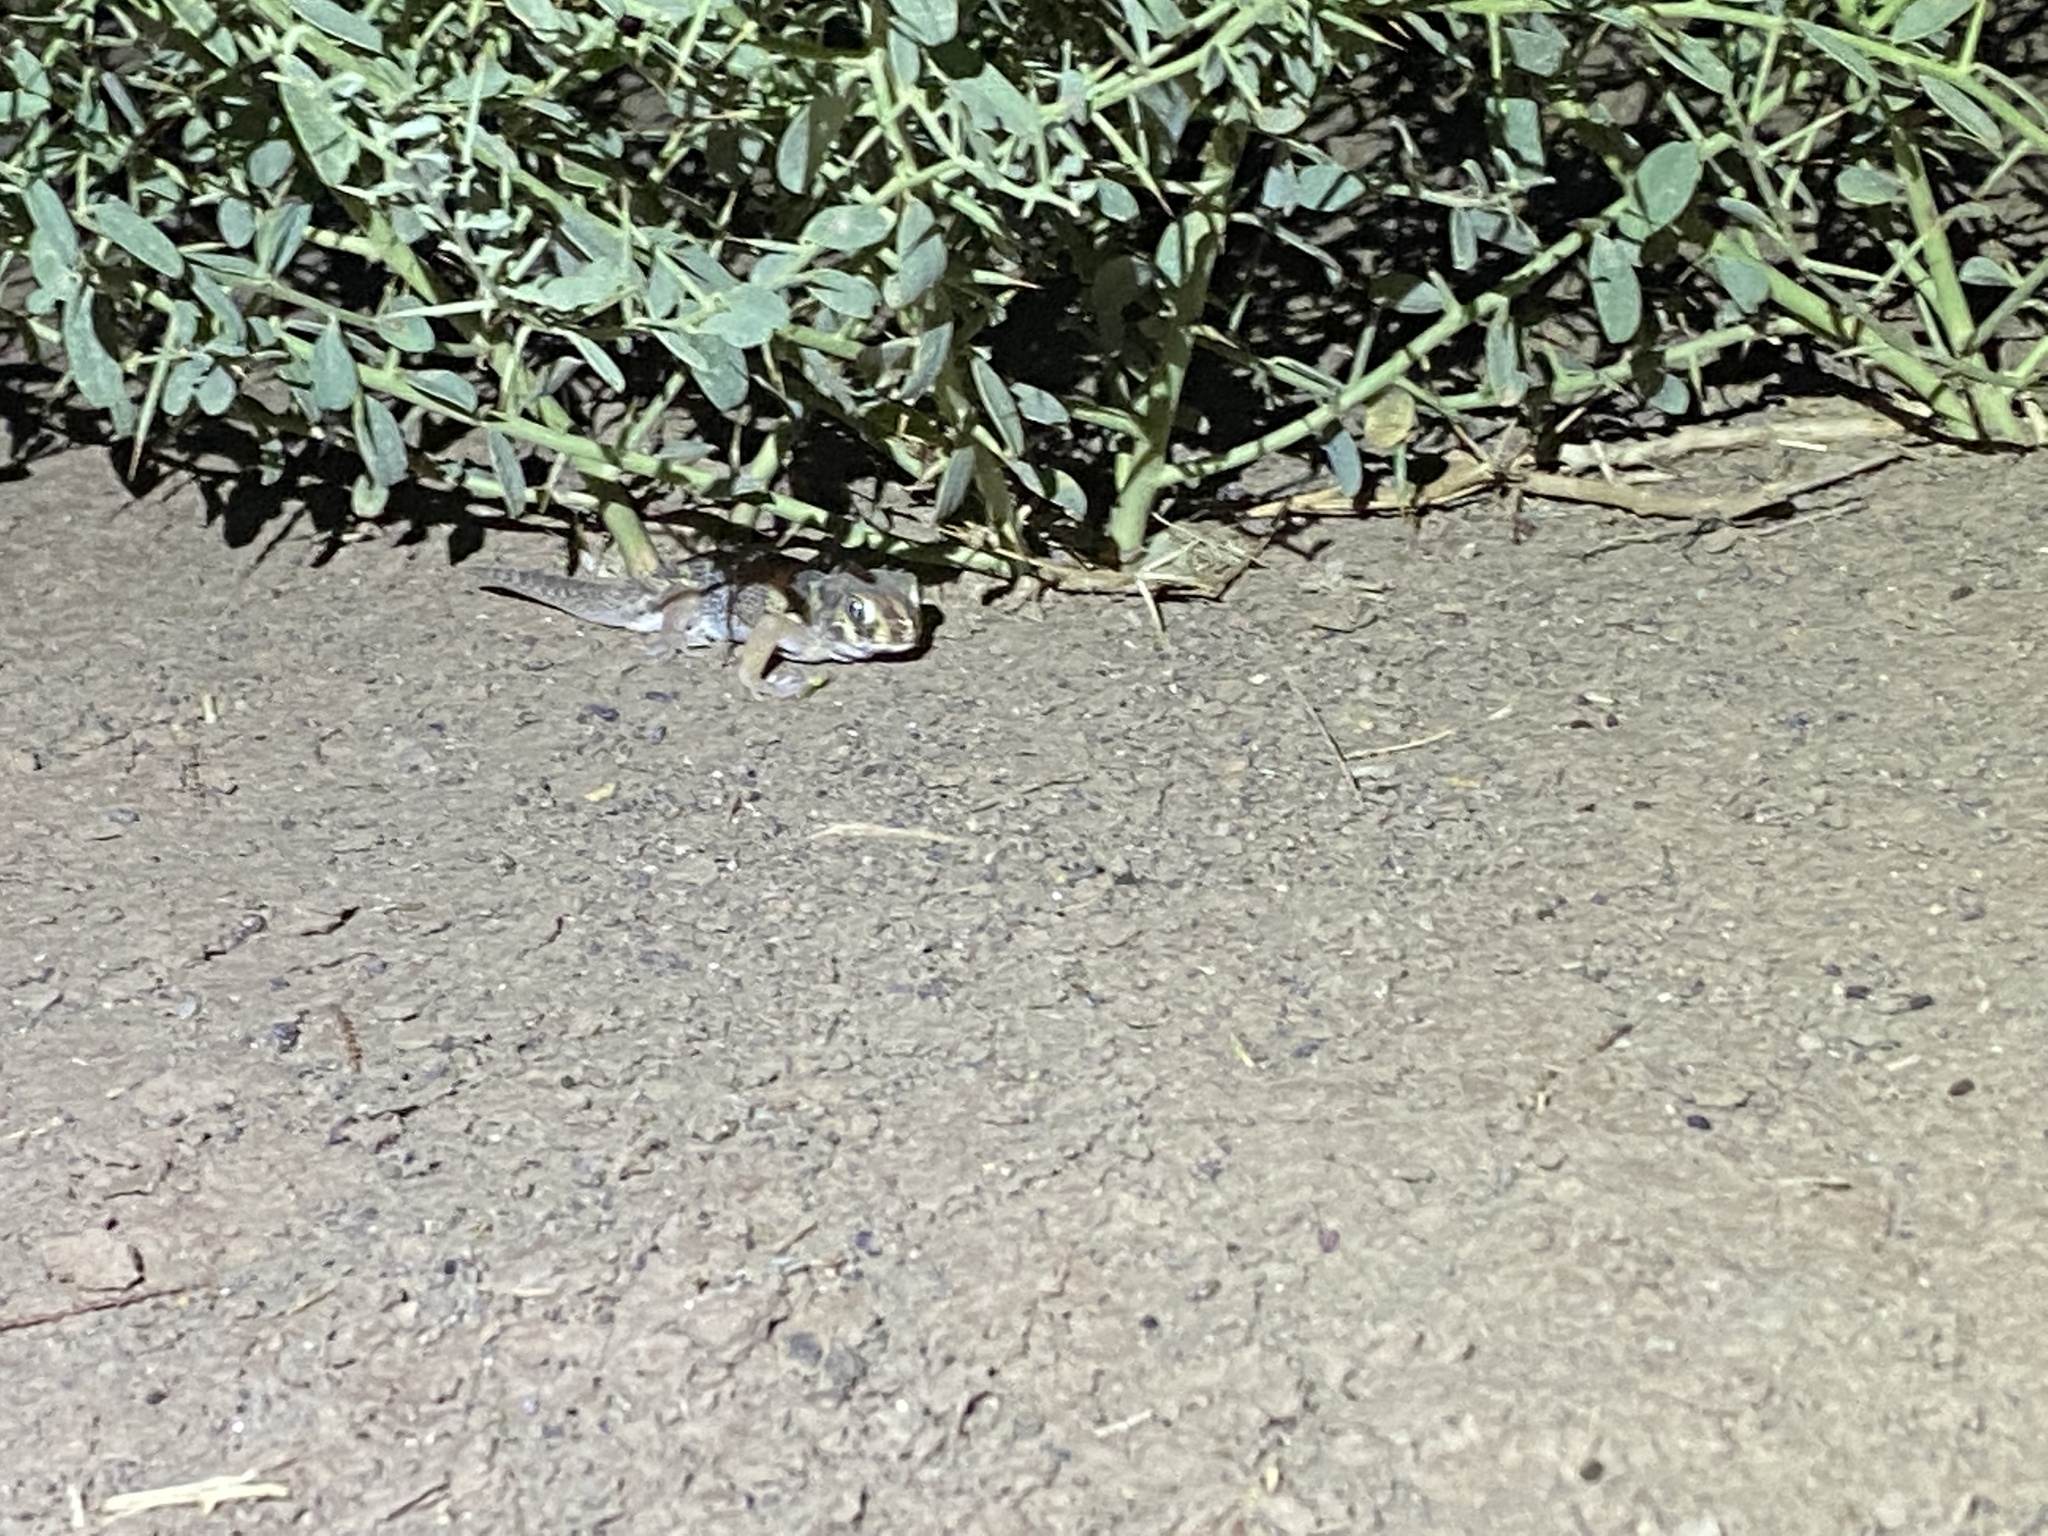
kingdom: Animalia
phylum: Chordata
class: Squamata
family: Sphaerodactylidae
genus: Teratoscincus
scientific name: Teratoscincus bedriagai
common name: Bedriaga's plate-tailed gecko
